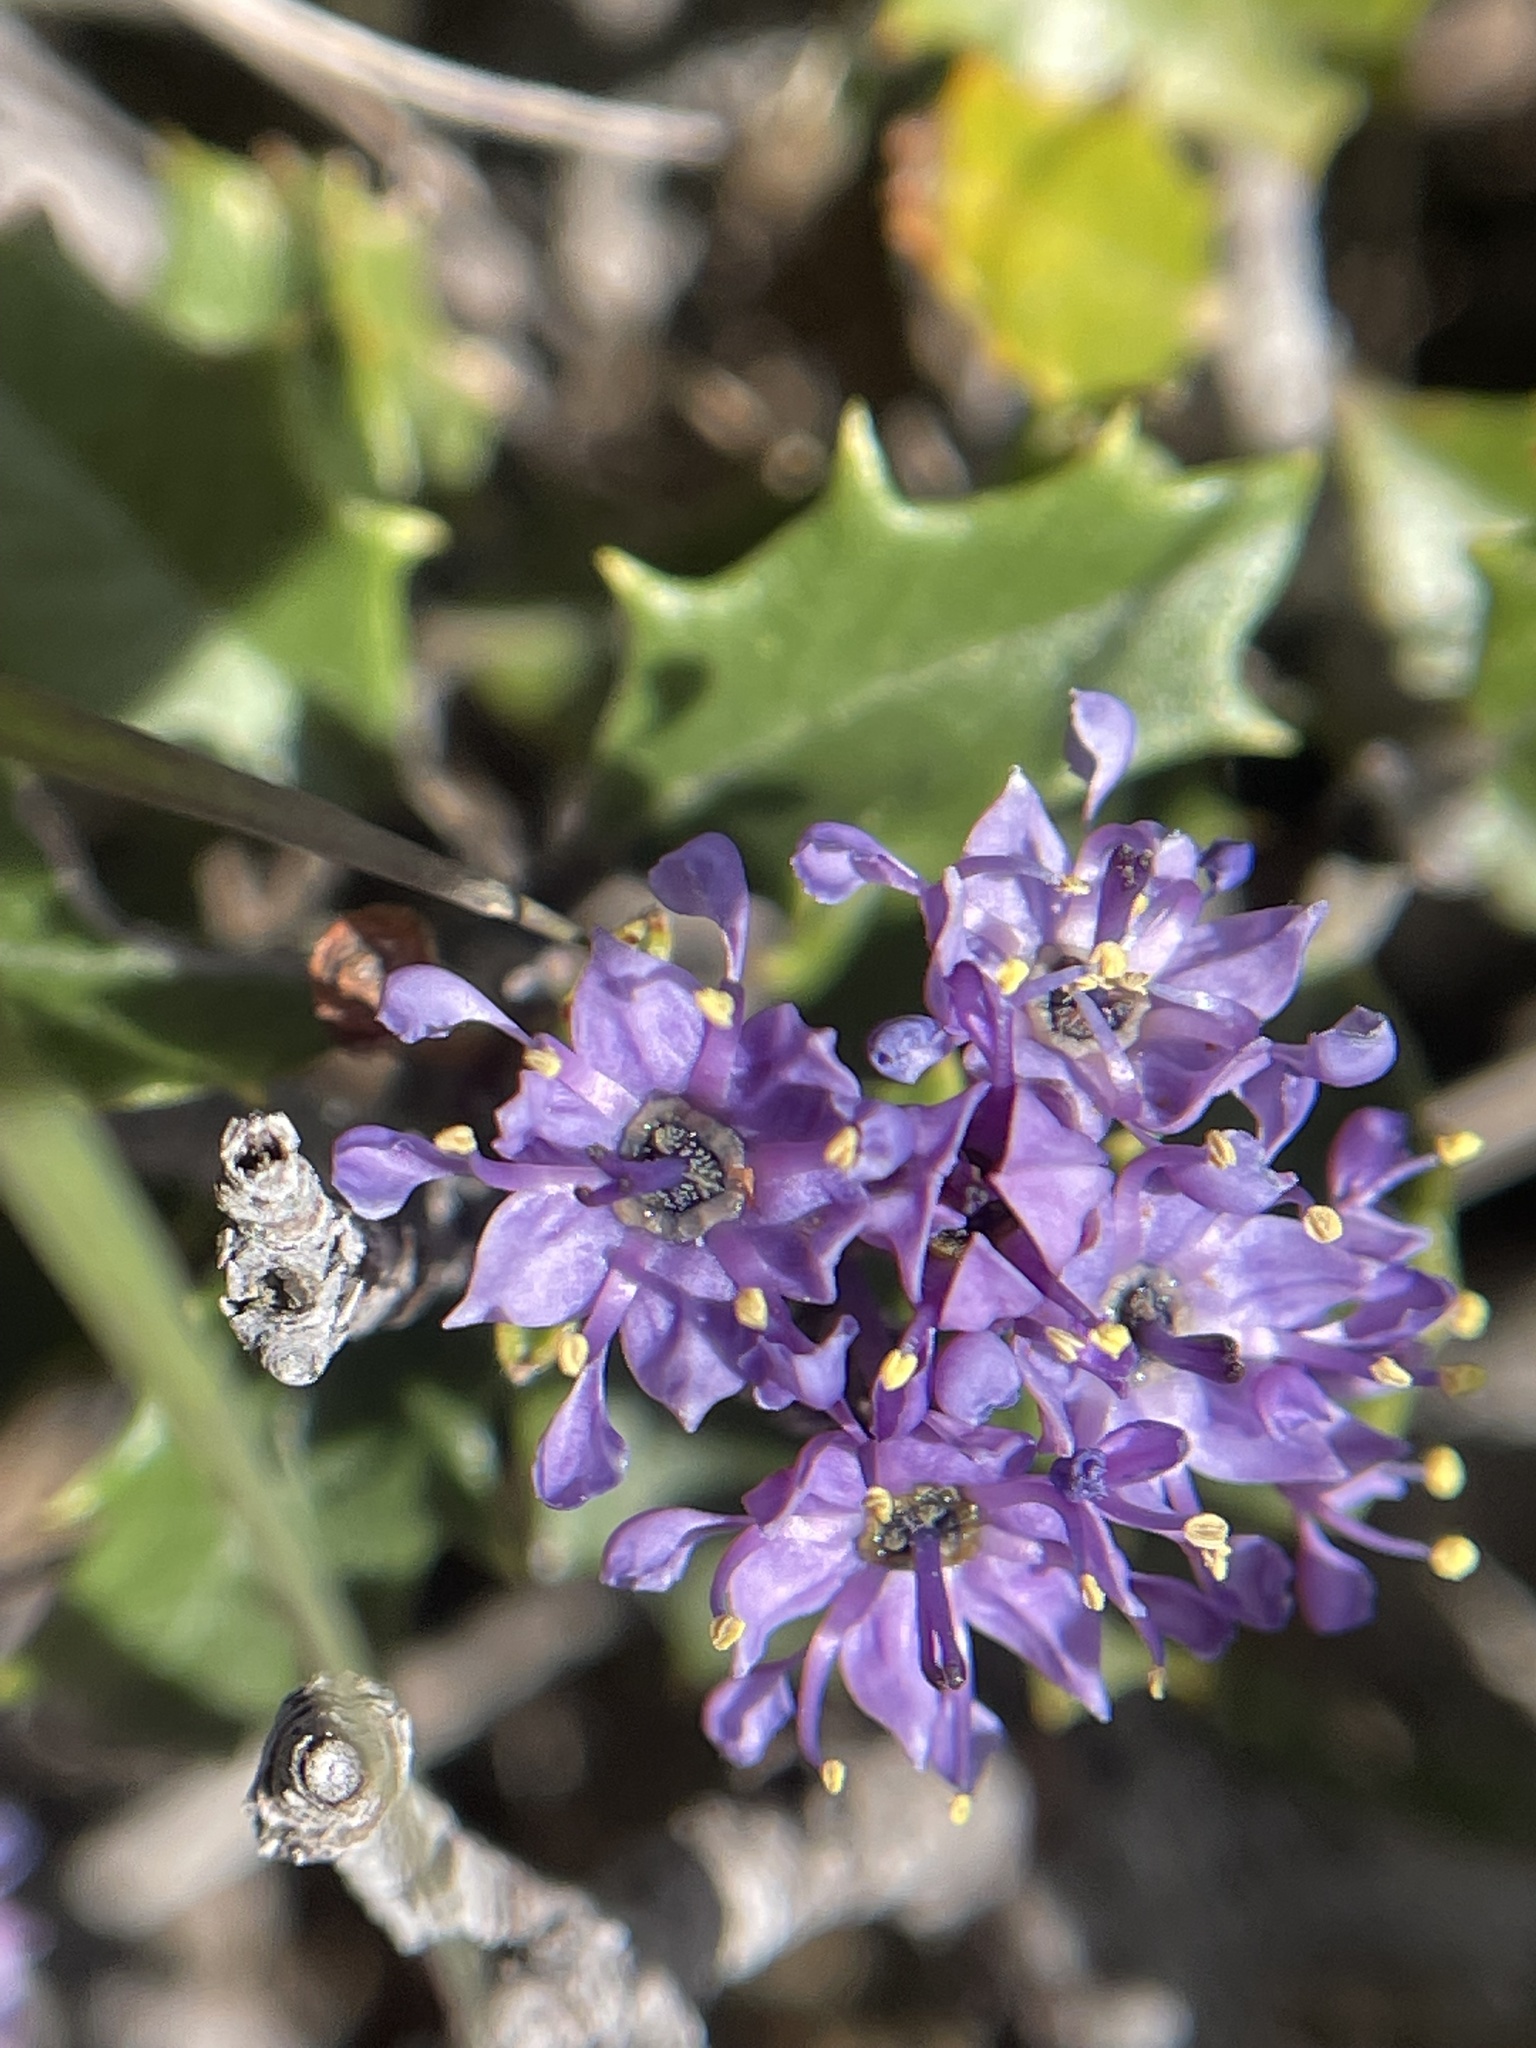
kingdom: Plantae
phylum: Tracheophyta
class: Magnoliopsida
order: Rosales
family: Rhamnaceae
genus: Ceanothus
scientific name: Ceanothus jepsonii
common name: Muskbrush
